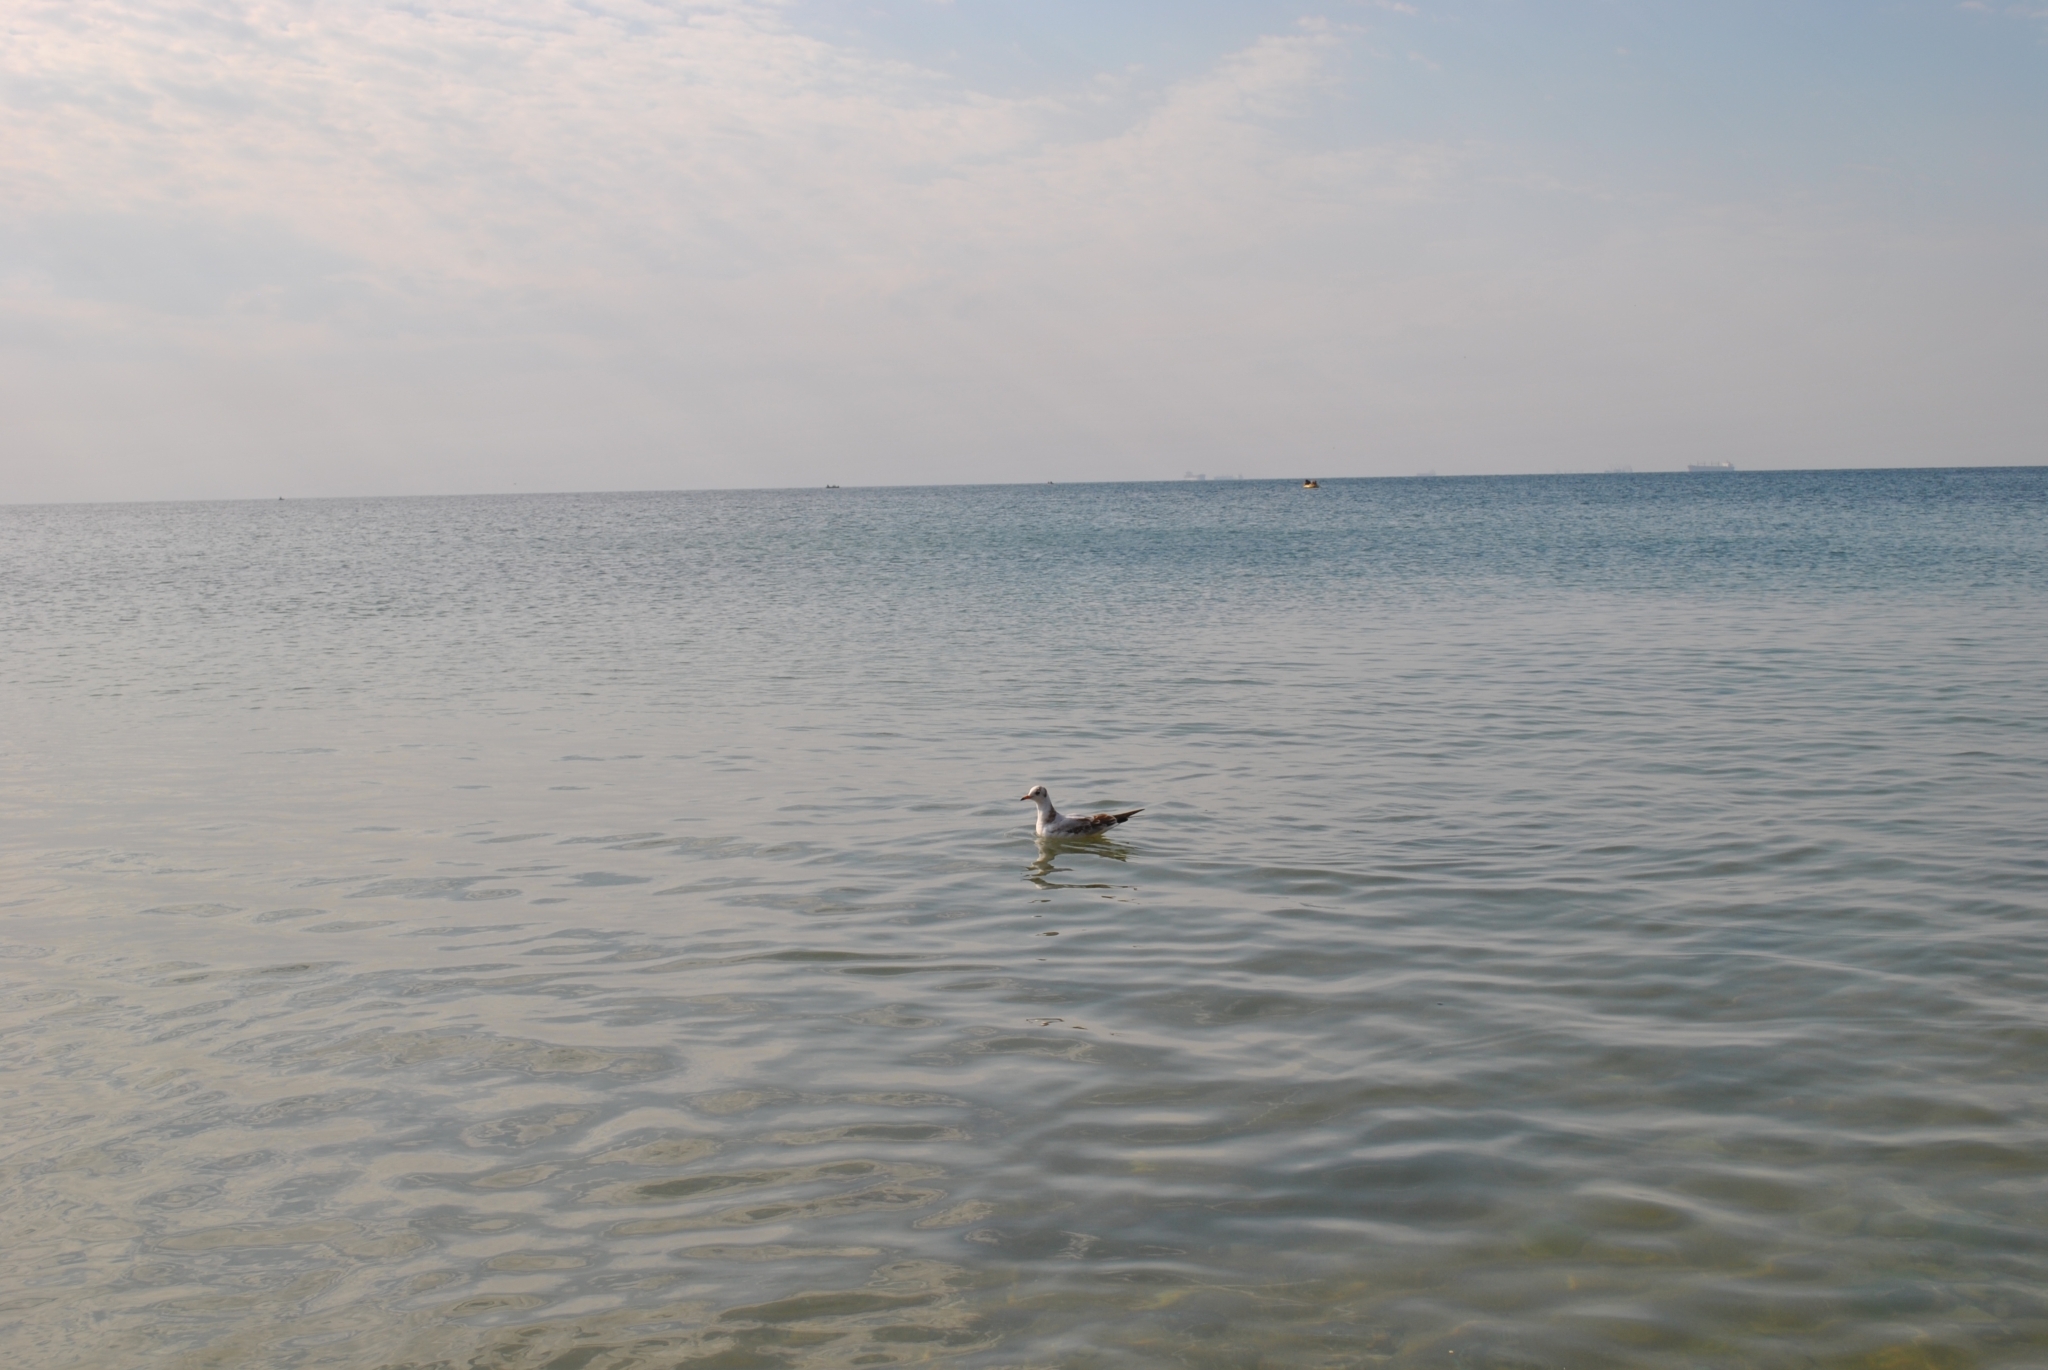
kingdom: Animalia
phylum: Chordata
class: Aves
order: Charadriiformes
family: Laridae
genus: Chroicocephalus
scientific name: Chroicocephalus ridibundus
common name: Black-headed gull
